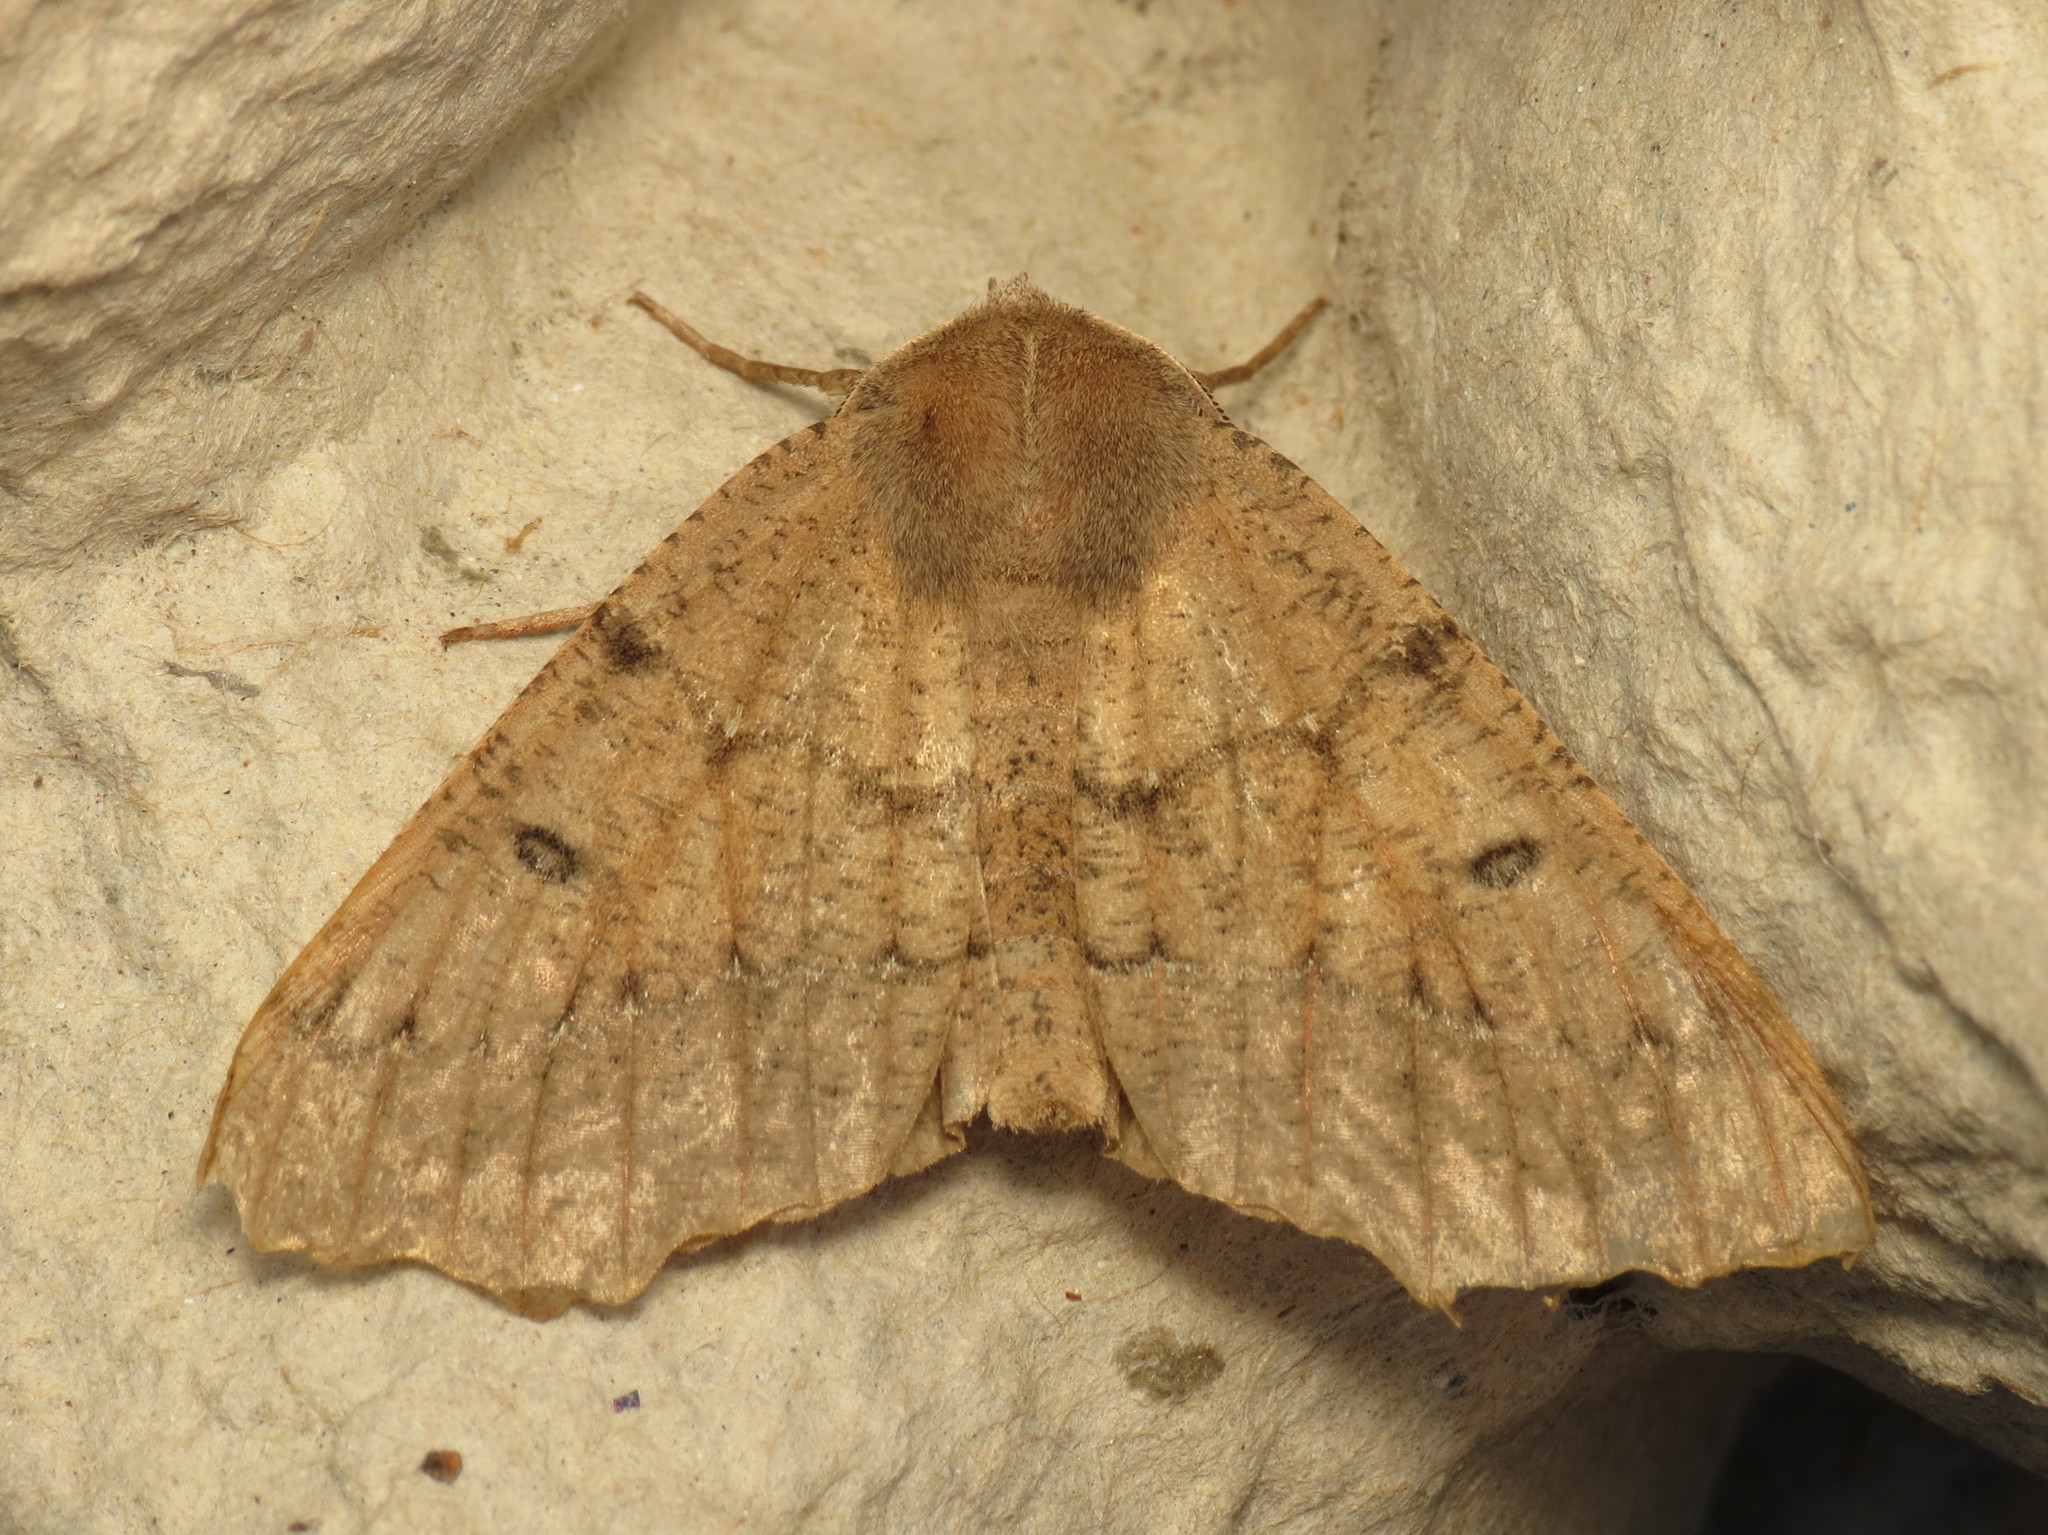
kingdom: Animalia
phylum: Arthropoda
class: Insecta
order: Lepidoptera
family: Geometridae
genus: Odontopera
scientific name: Odontopera bidentata
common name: Scalloped hazel
